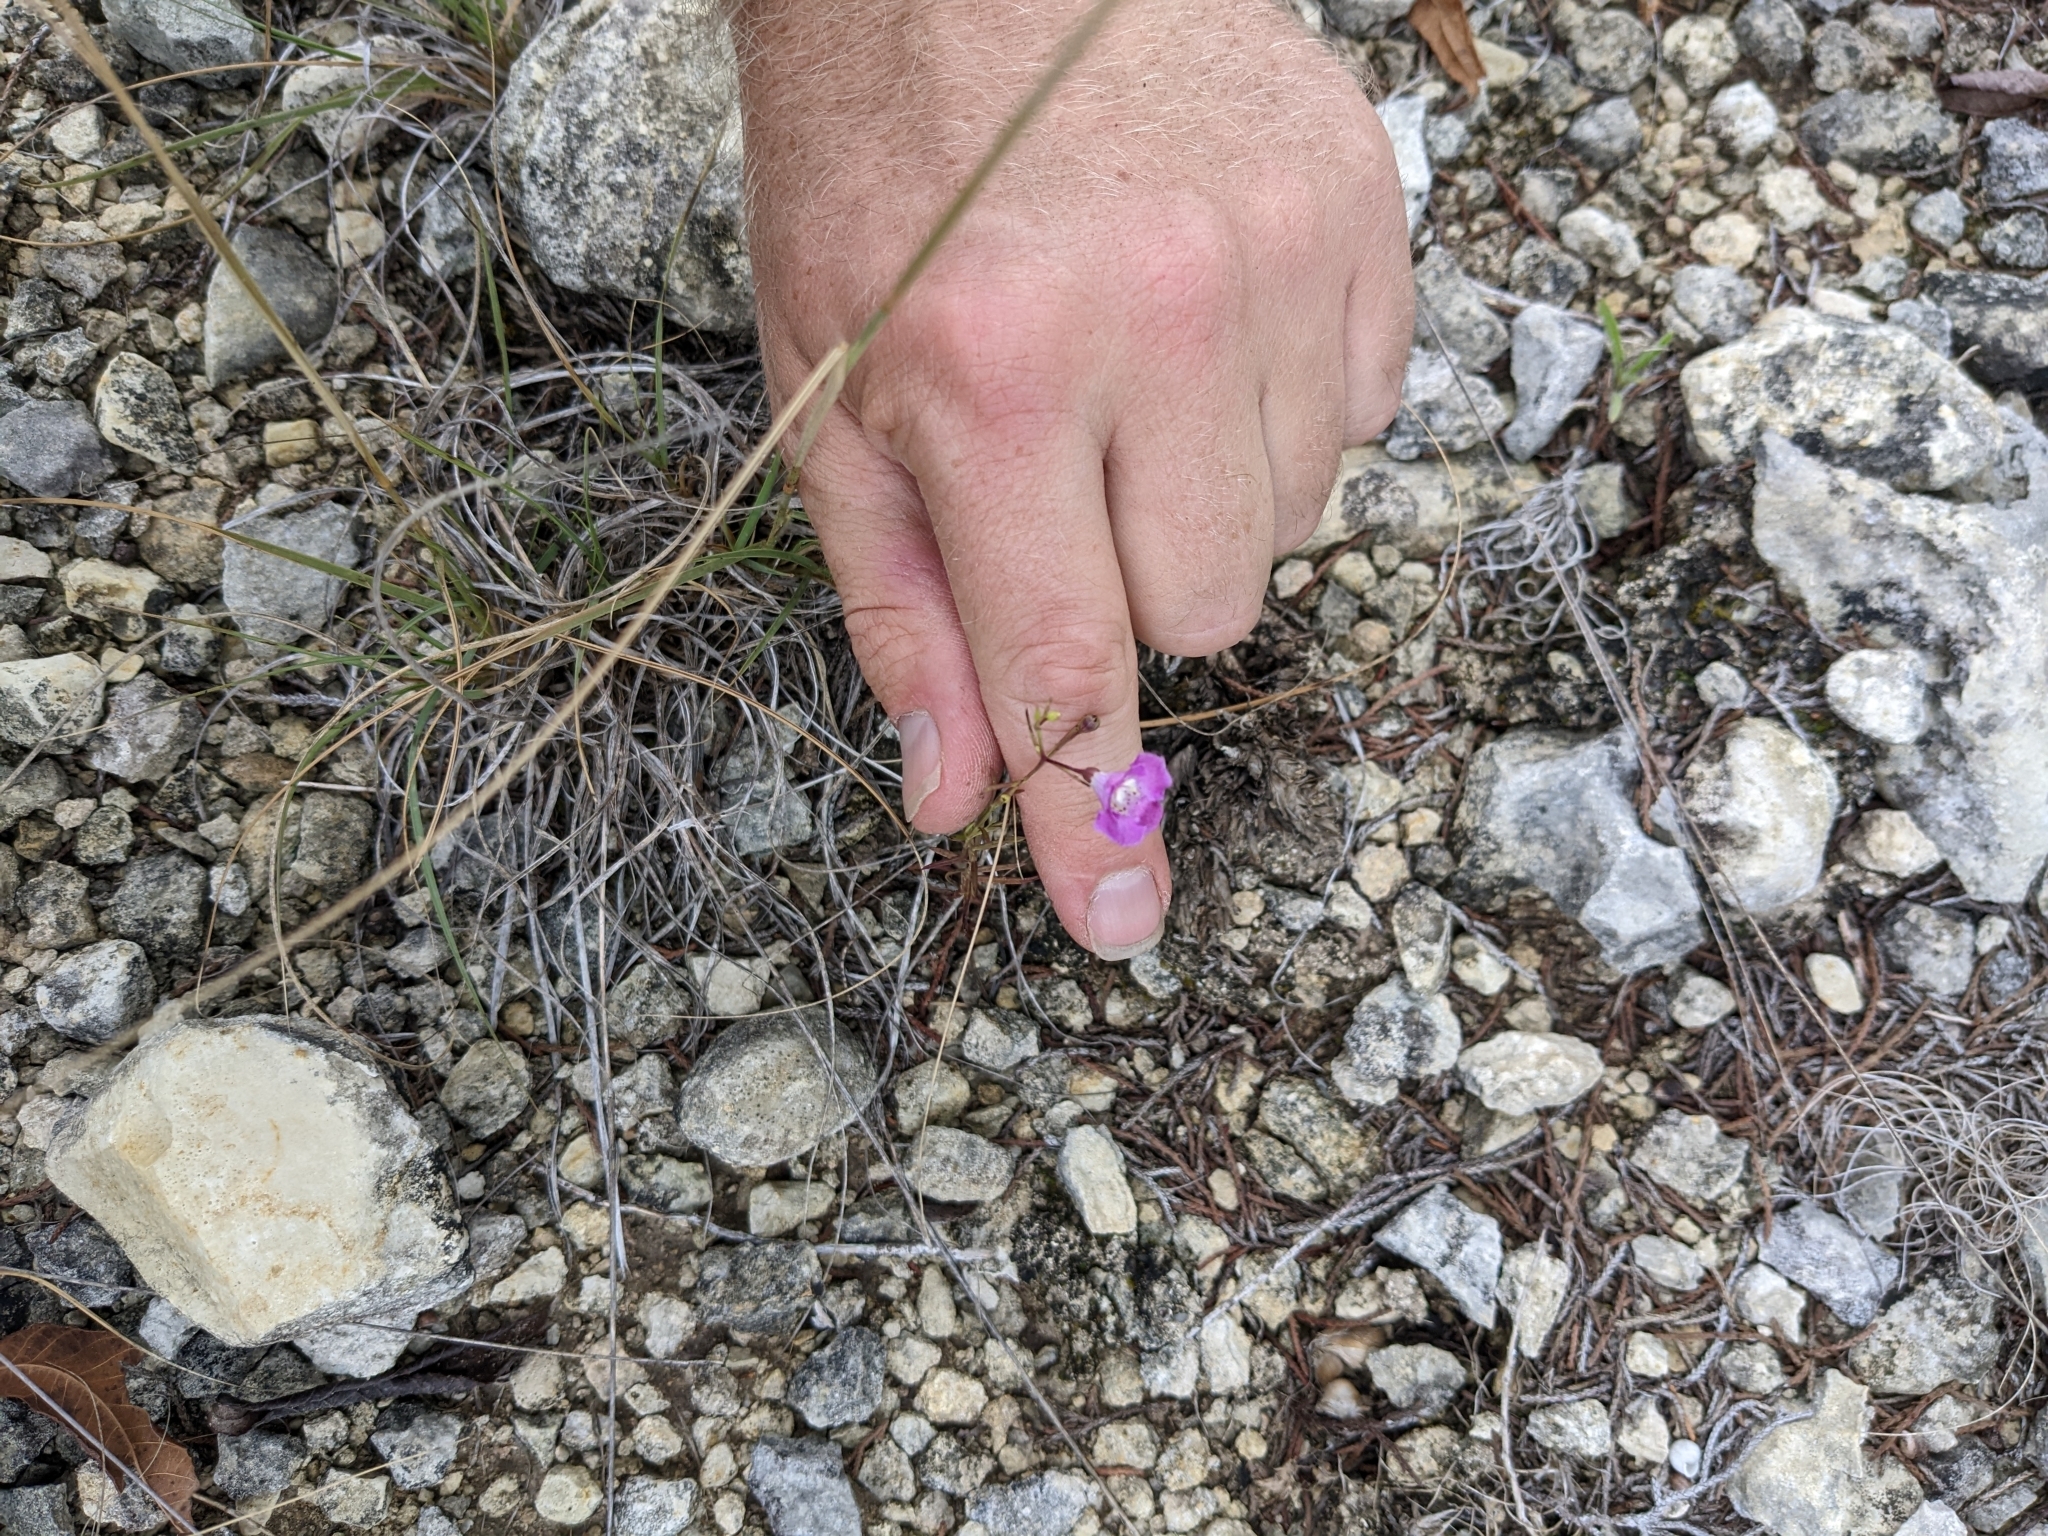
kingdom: Plantae
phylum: Tracheophyta
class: Magnoliopsida
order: Lamiales
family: Orobanchaceae
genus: Agalinis
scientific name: Agalinis edwardsiana
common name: Plateau-gerardia
